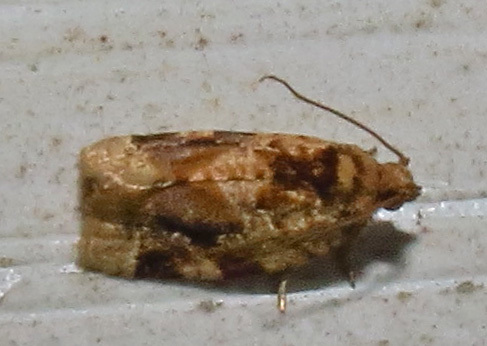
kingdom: Animalia
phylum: Arthropoda
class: Insecta
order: Lepidoptera
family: Tortricidae
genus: Argyrotaenia
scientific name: Argyrotaenia velutinana
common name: Red-banded leafroller moth
